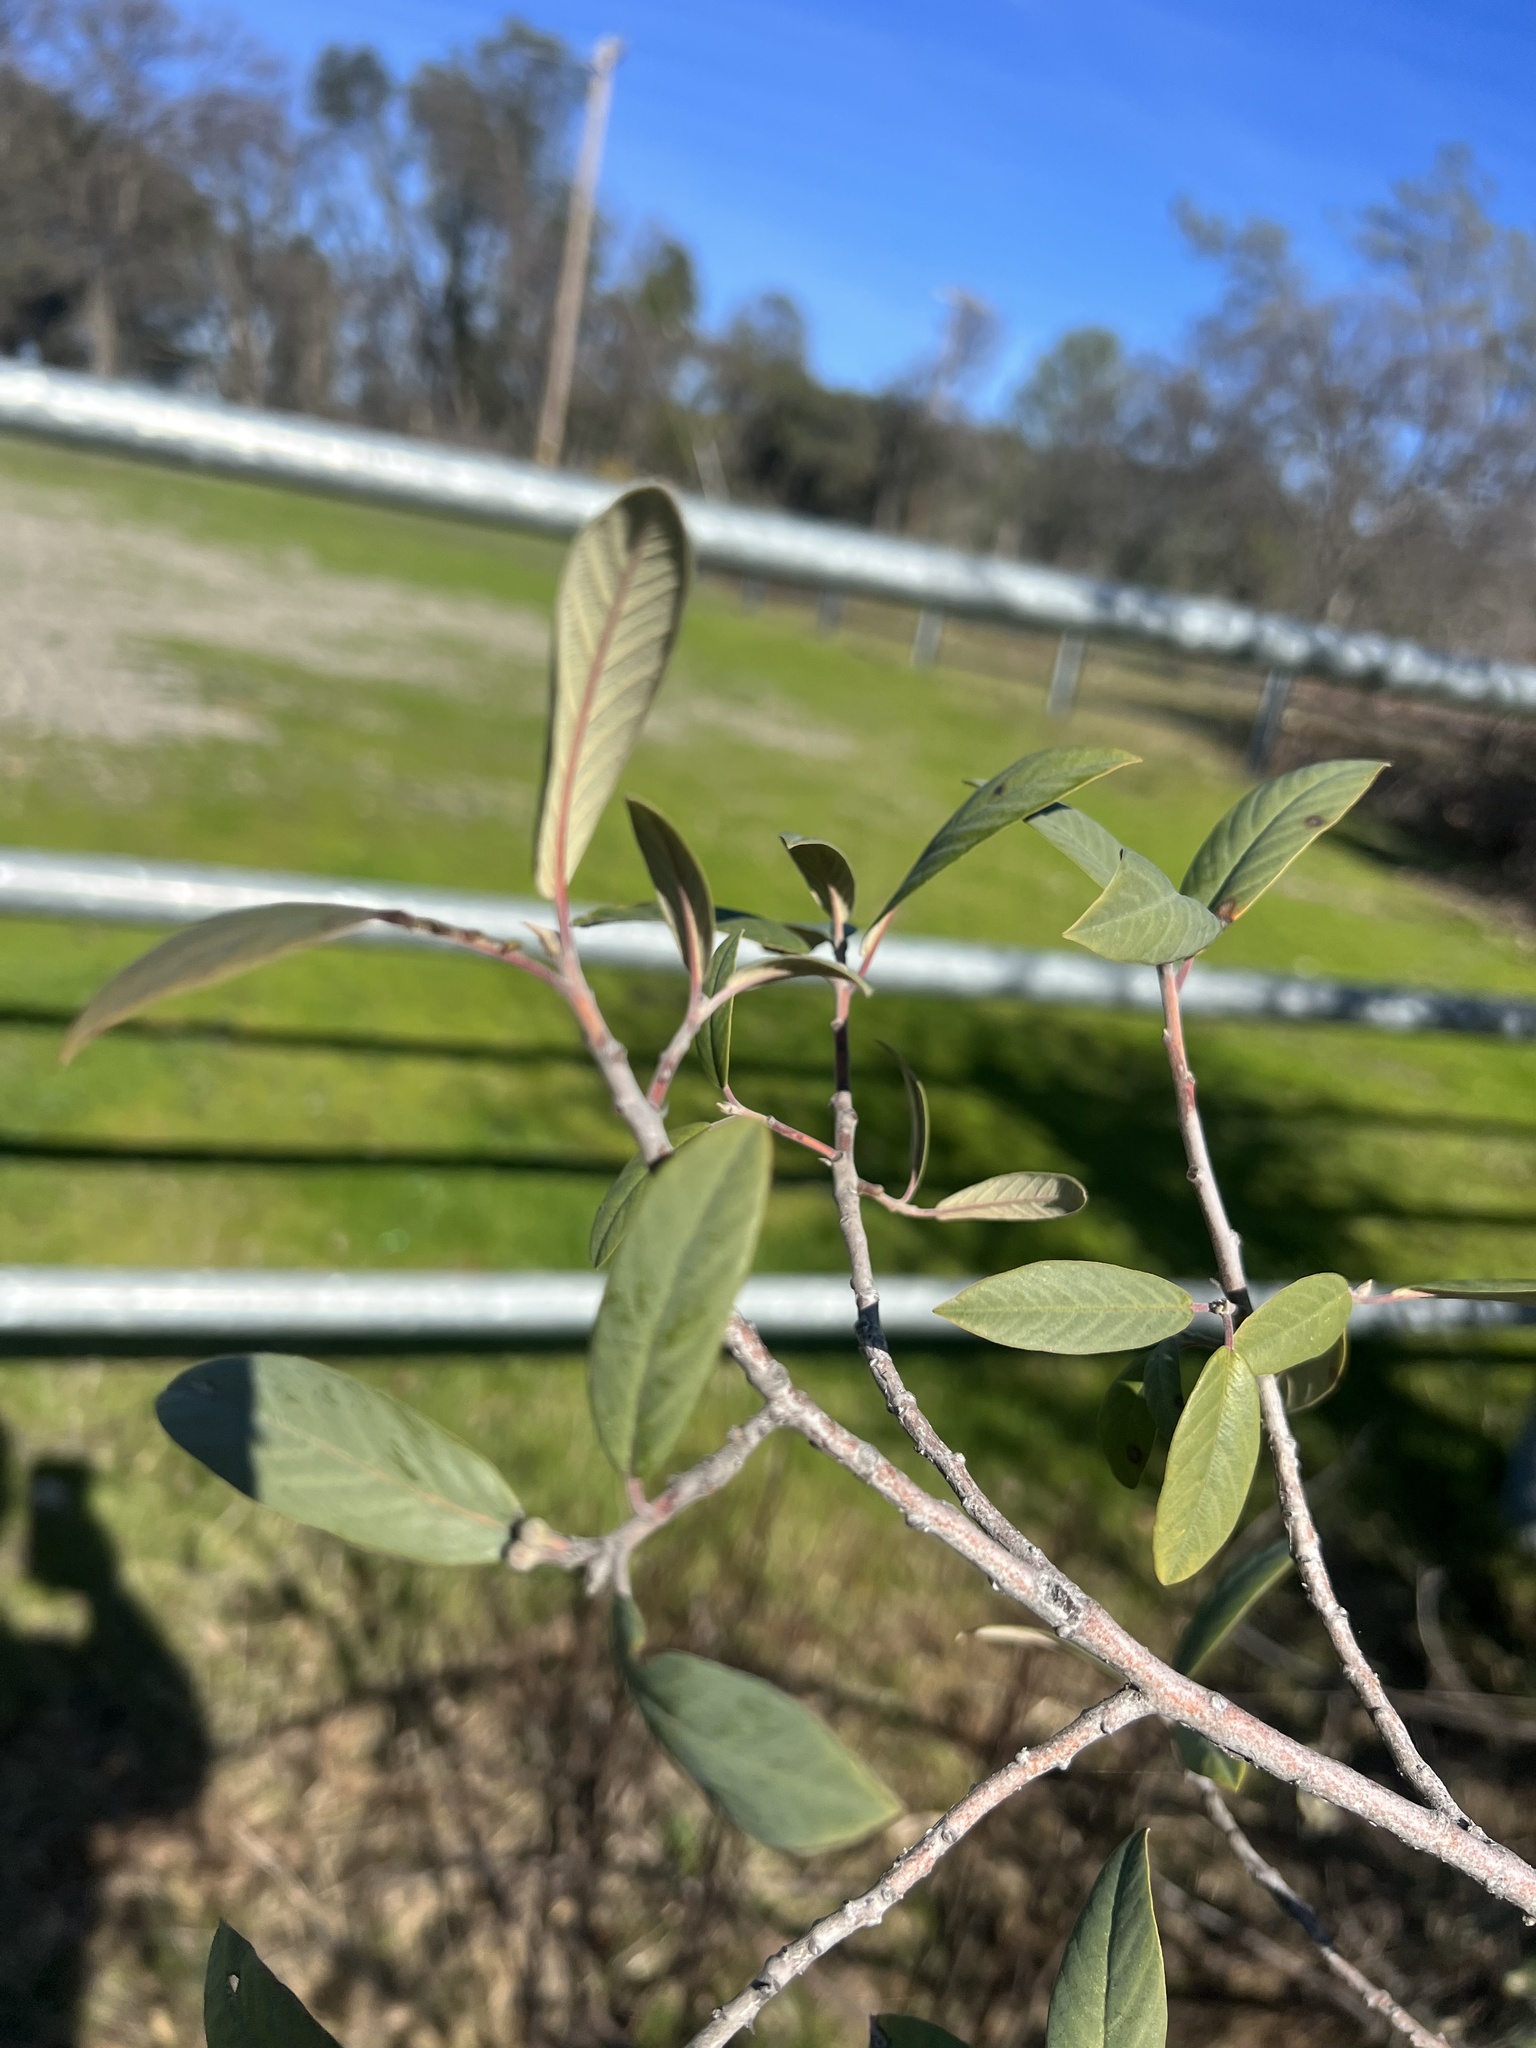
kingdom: Plantae
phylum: Tracheophyta
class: Magnoliopsida
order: Rosales
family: Rhamnaceae
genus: Frangula
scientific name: Frangula californica
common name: California buckthorn
